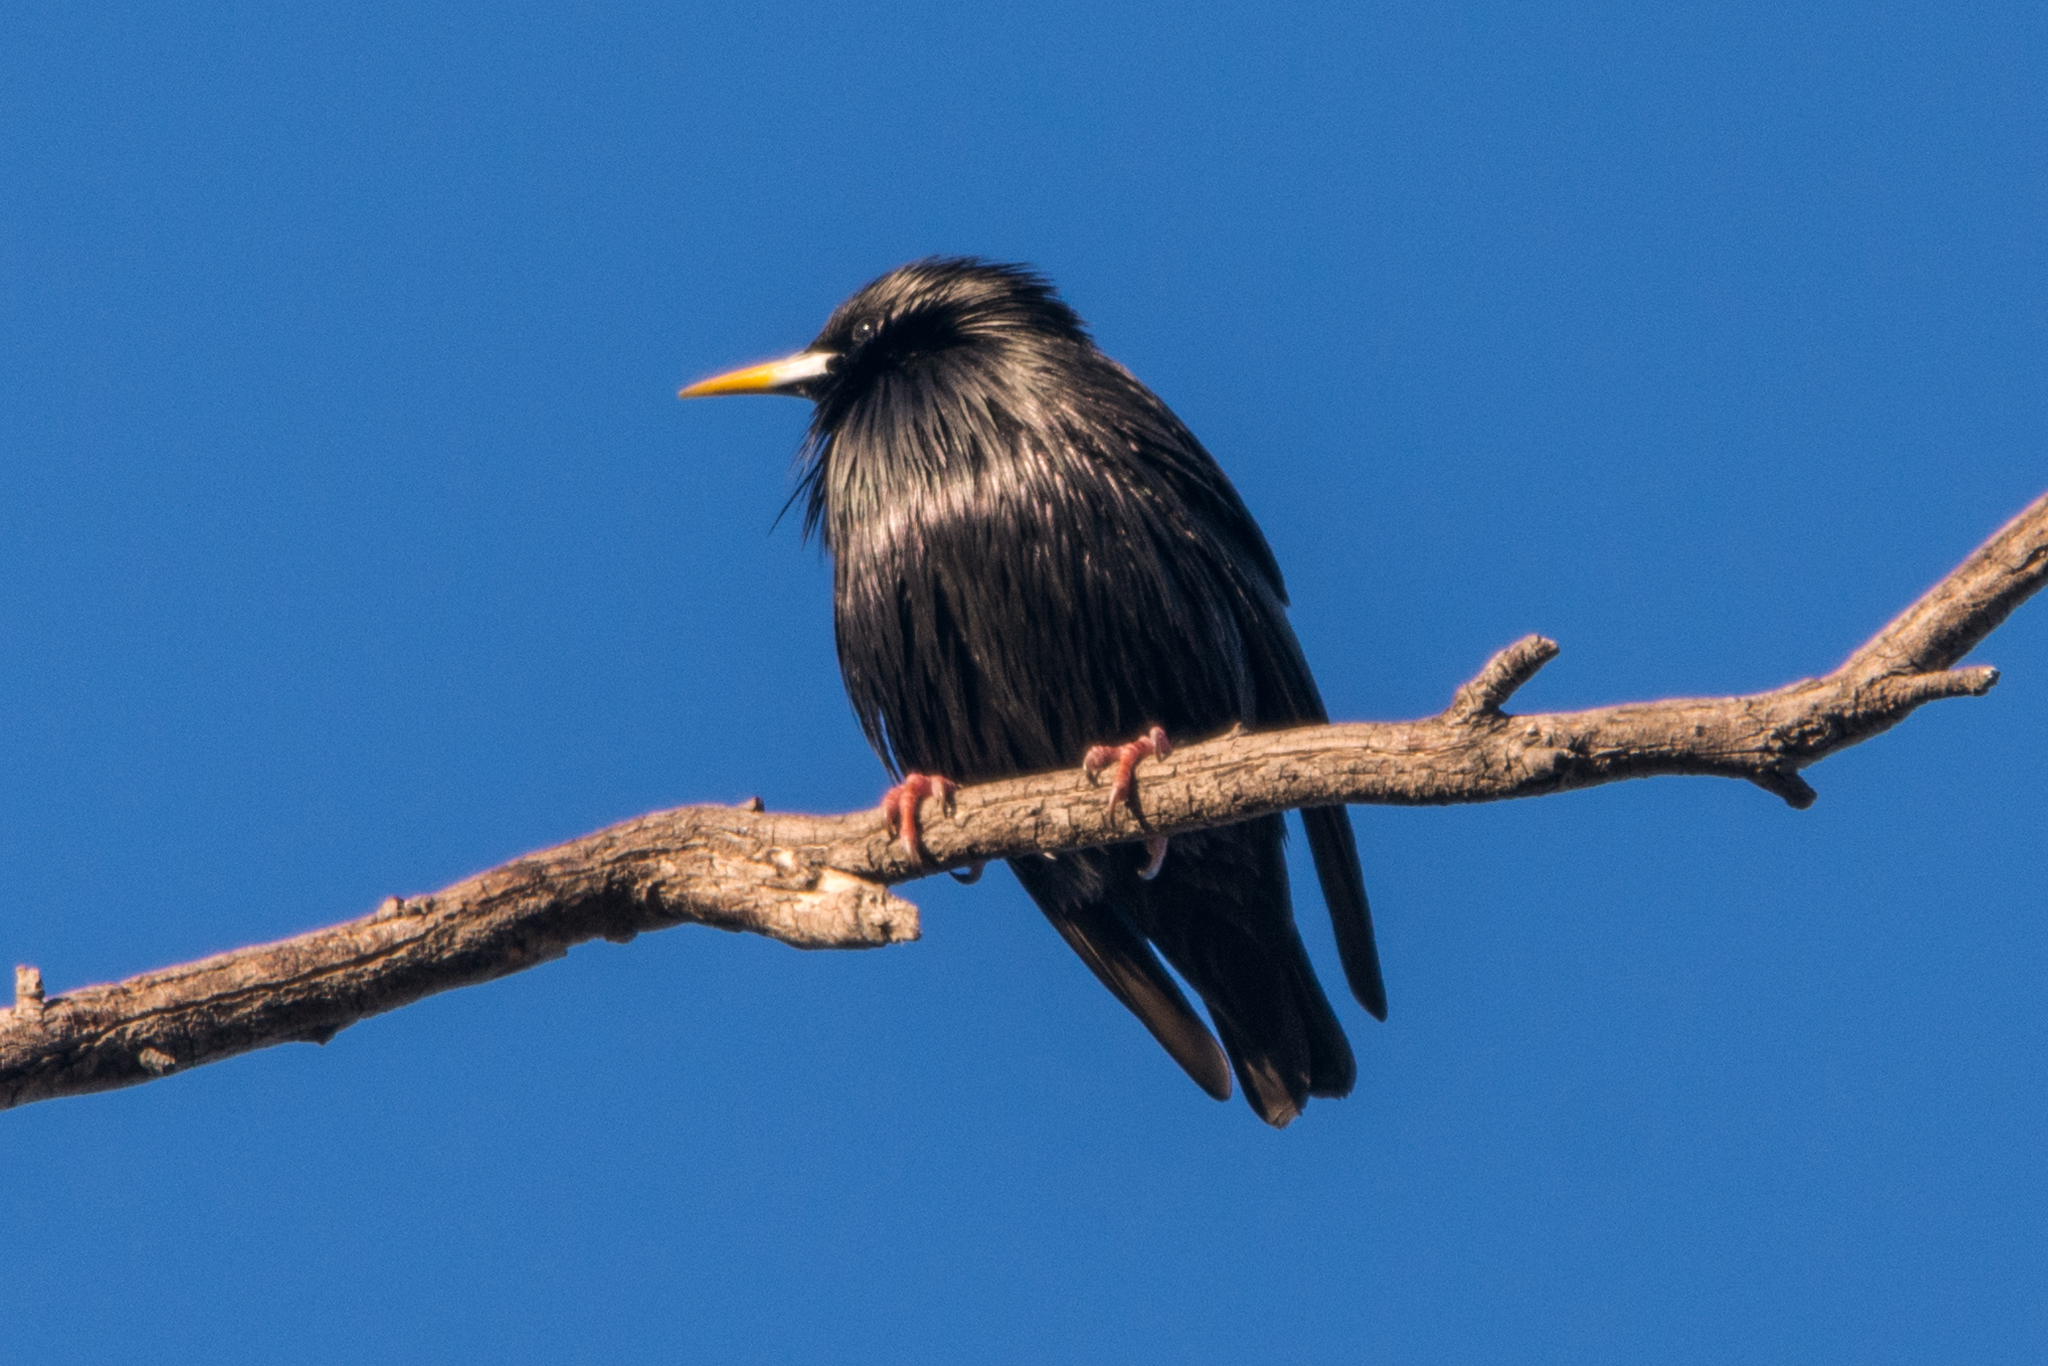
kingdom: Animalia
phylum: Chordata
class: Aves
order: Passeriformes
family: Sturnidae
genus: Sturnus
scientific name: Sturnus unicolor
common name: Spotless starling
